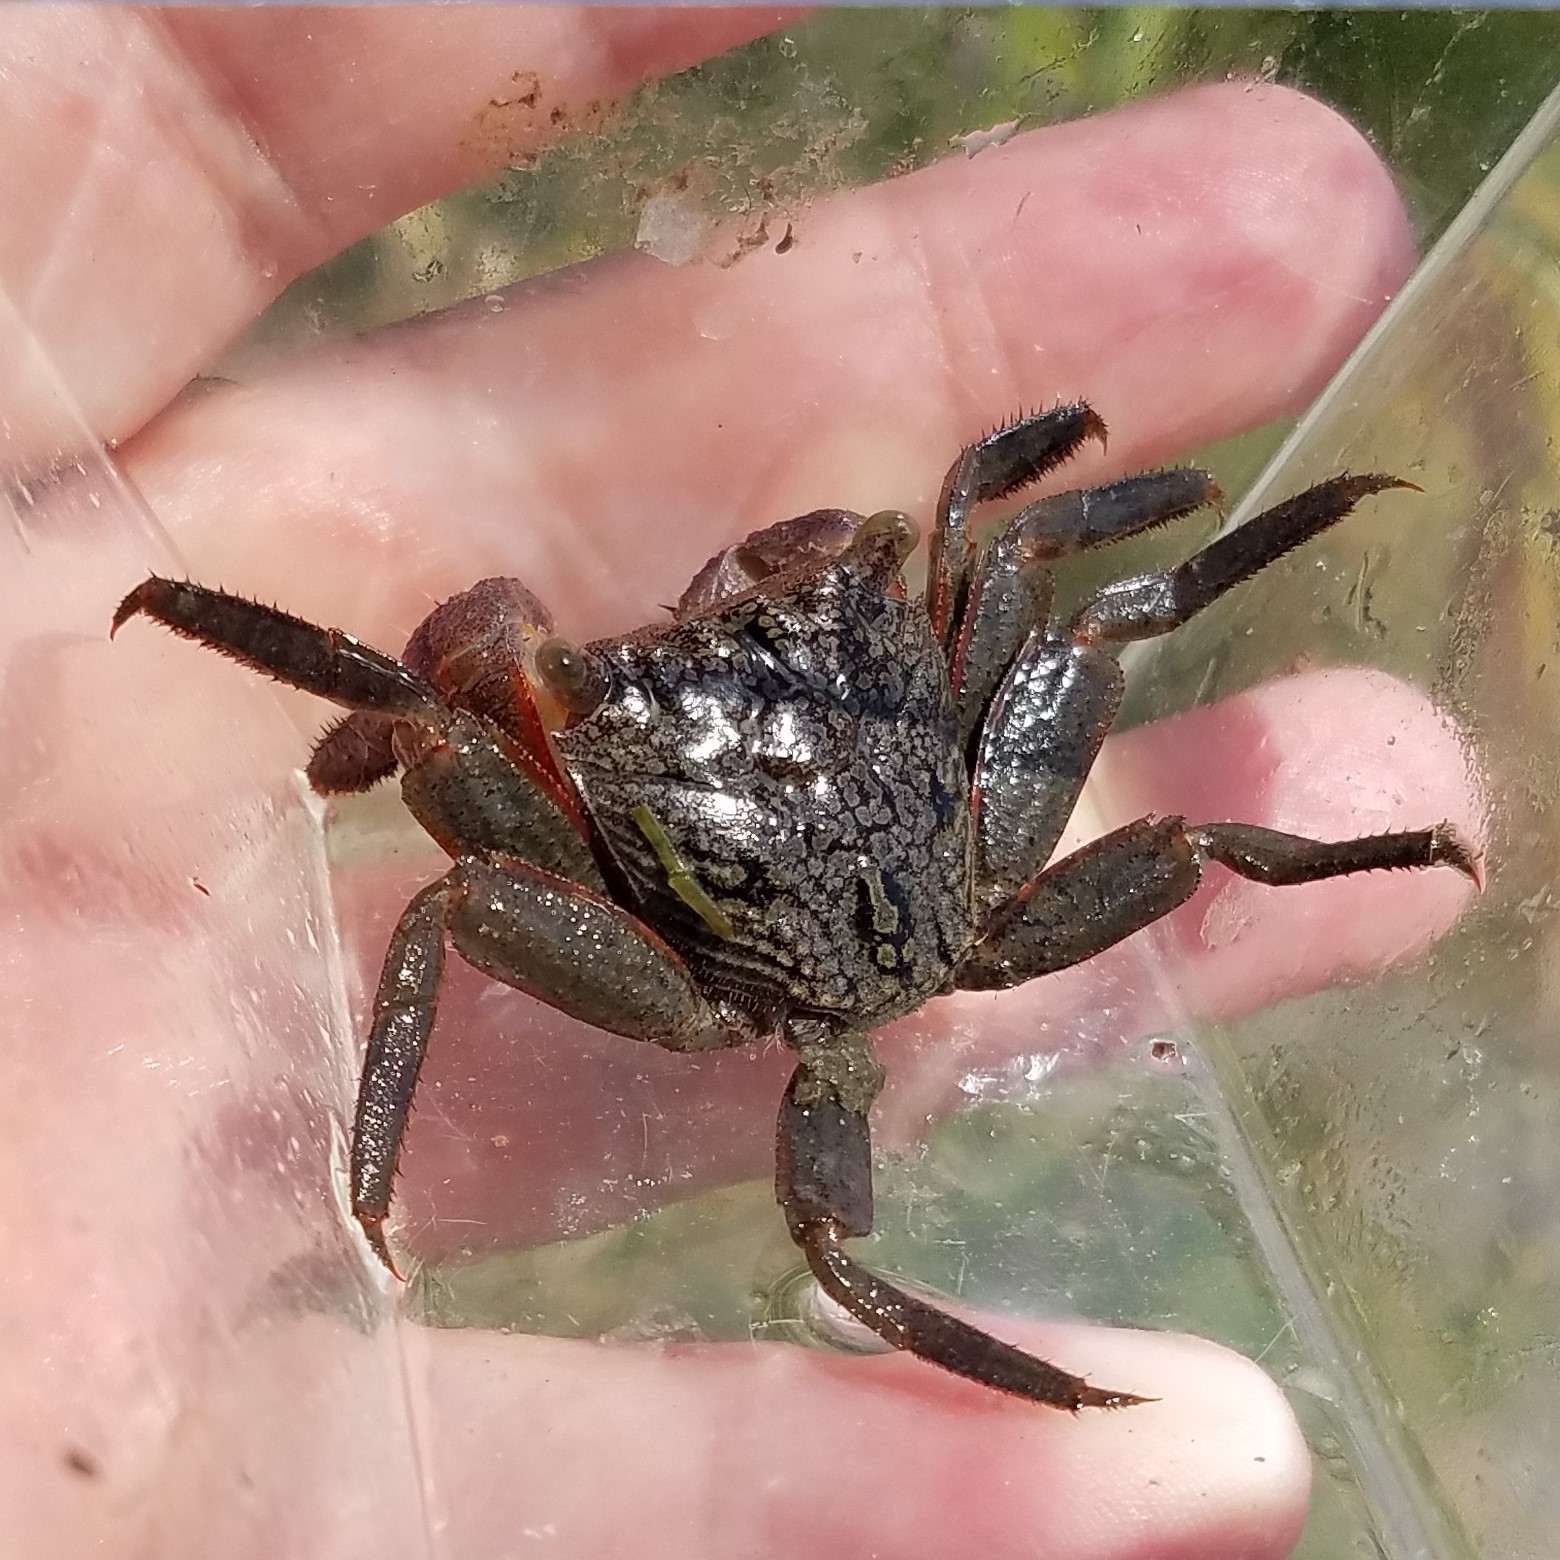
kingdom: Animalia
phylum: Arthropoda
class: Malacostraca
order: Decapoda
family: Sesarmidae
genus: Aratus
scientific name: Aratus pisonii
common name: Mangrove crab
